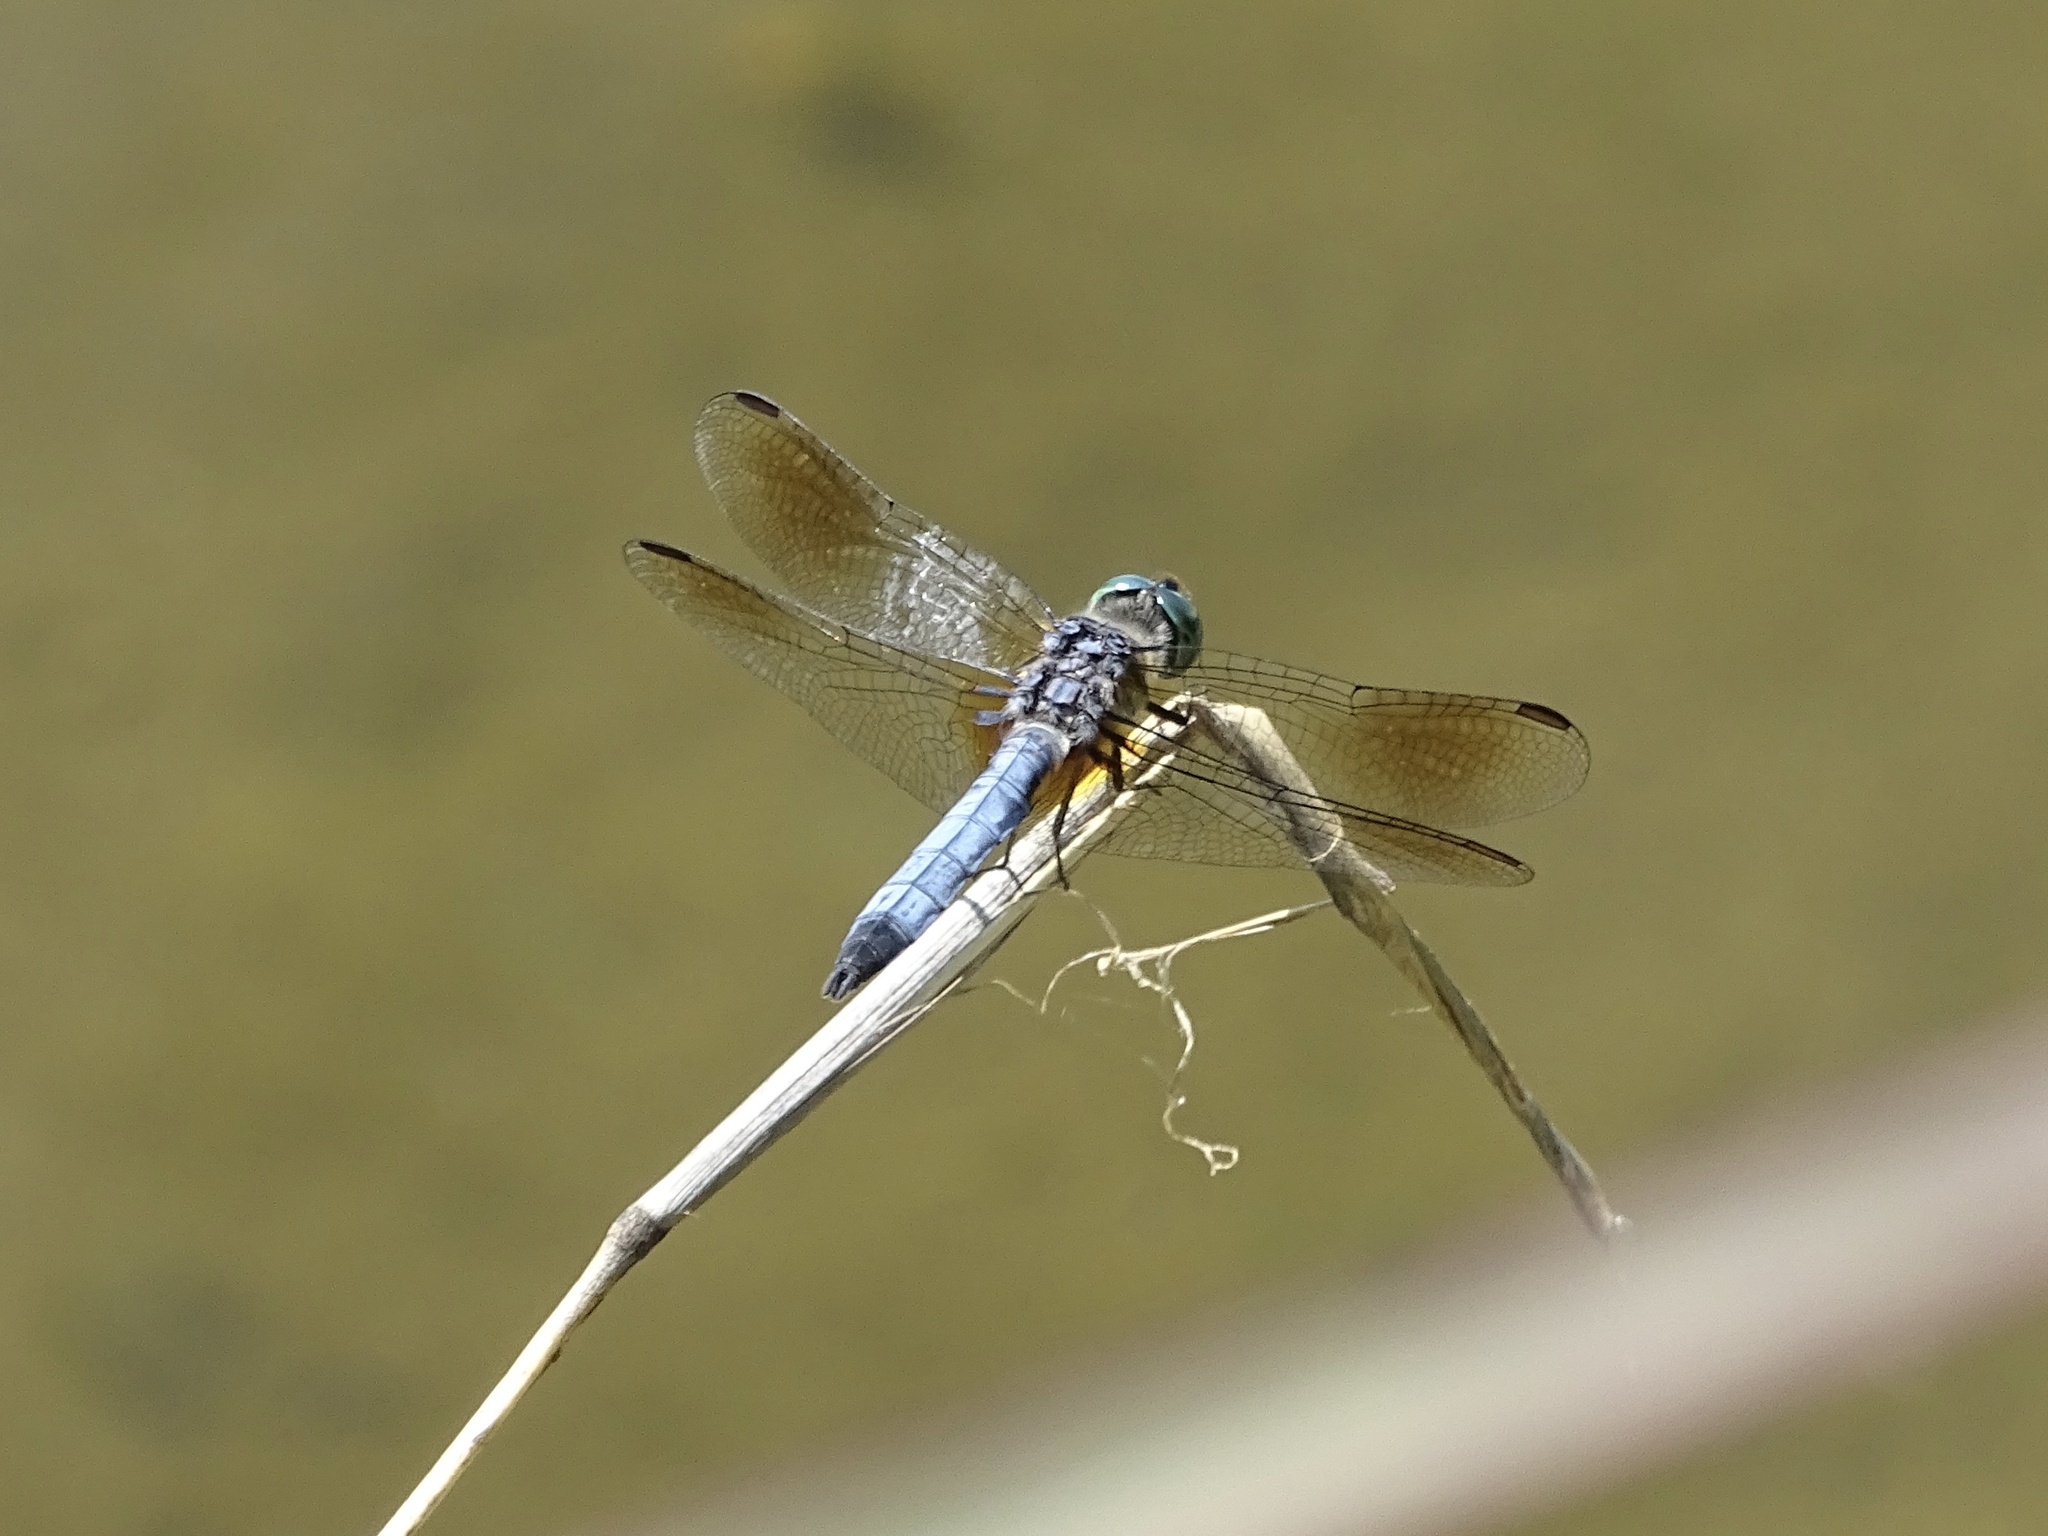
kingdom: Animalia
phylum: Arthropoda
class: Insecta
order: Odonata
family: Libellulidae
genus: Pachydiplax
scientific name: Pachydiplax longipennis
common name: Blue dasher
